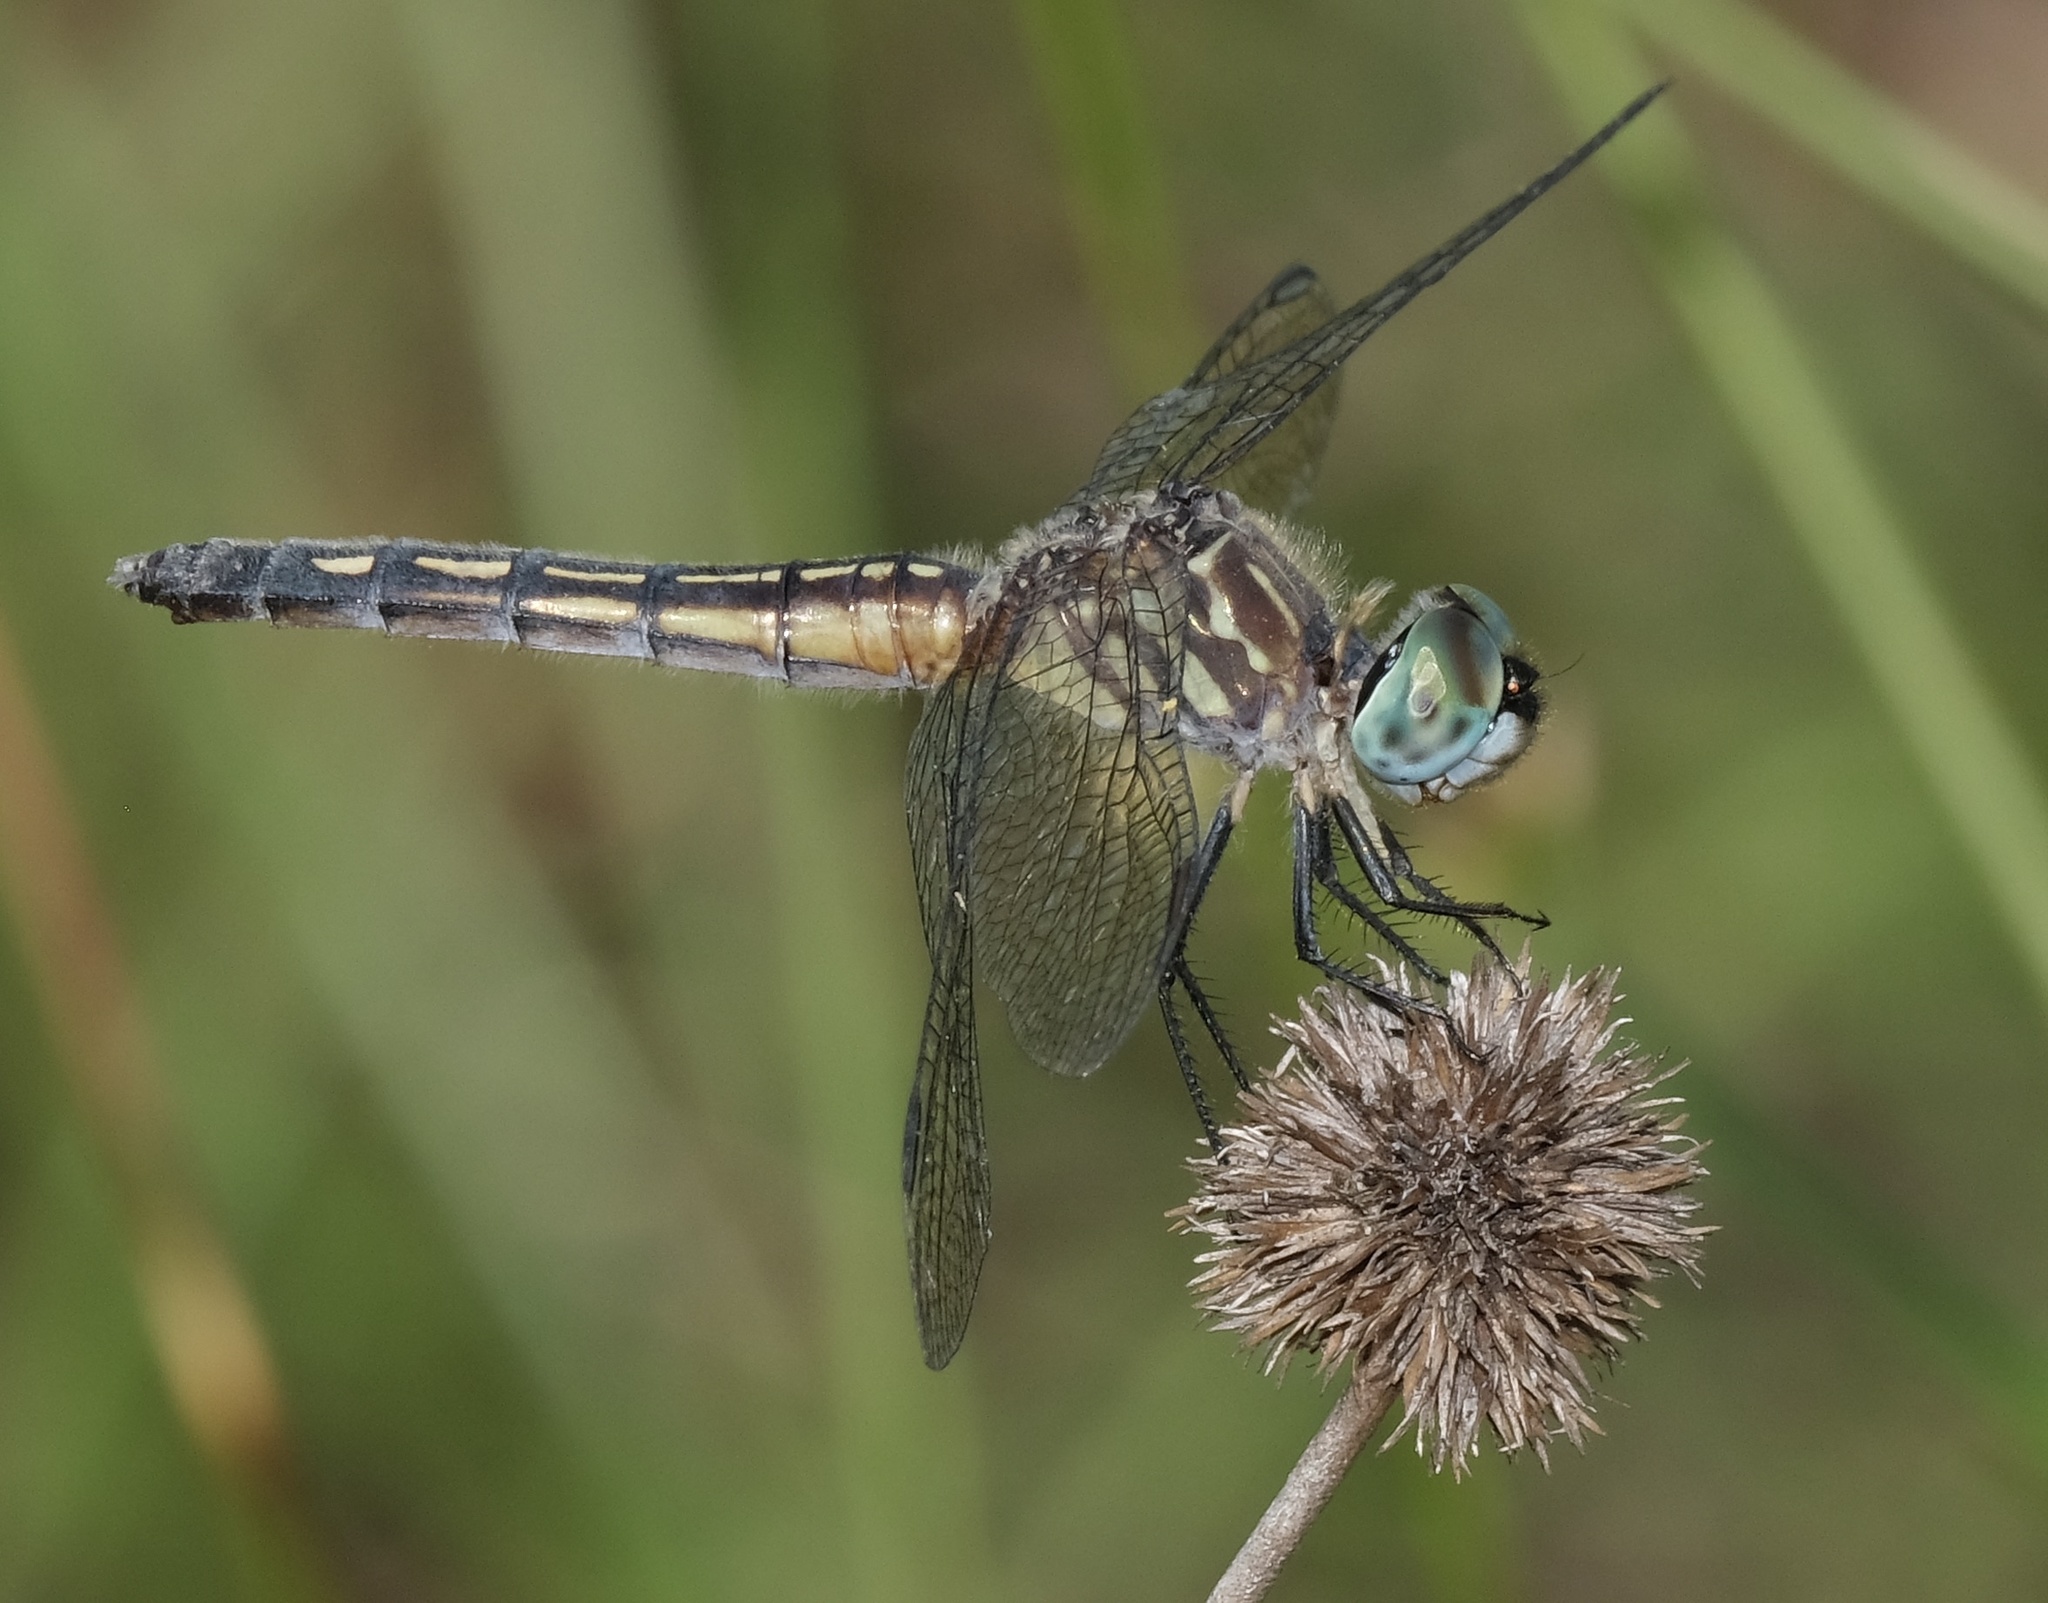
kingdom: Animalia
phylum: Arthropoda
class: Insecta
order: Odonata
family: Libellulidae
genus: Pachydiplax
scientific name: Pachydiplax longipennis
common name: Blue dasher
